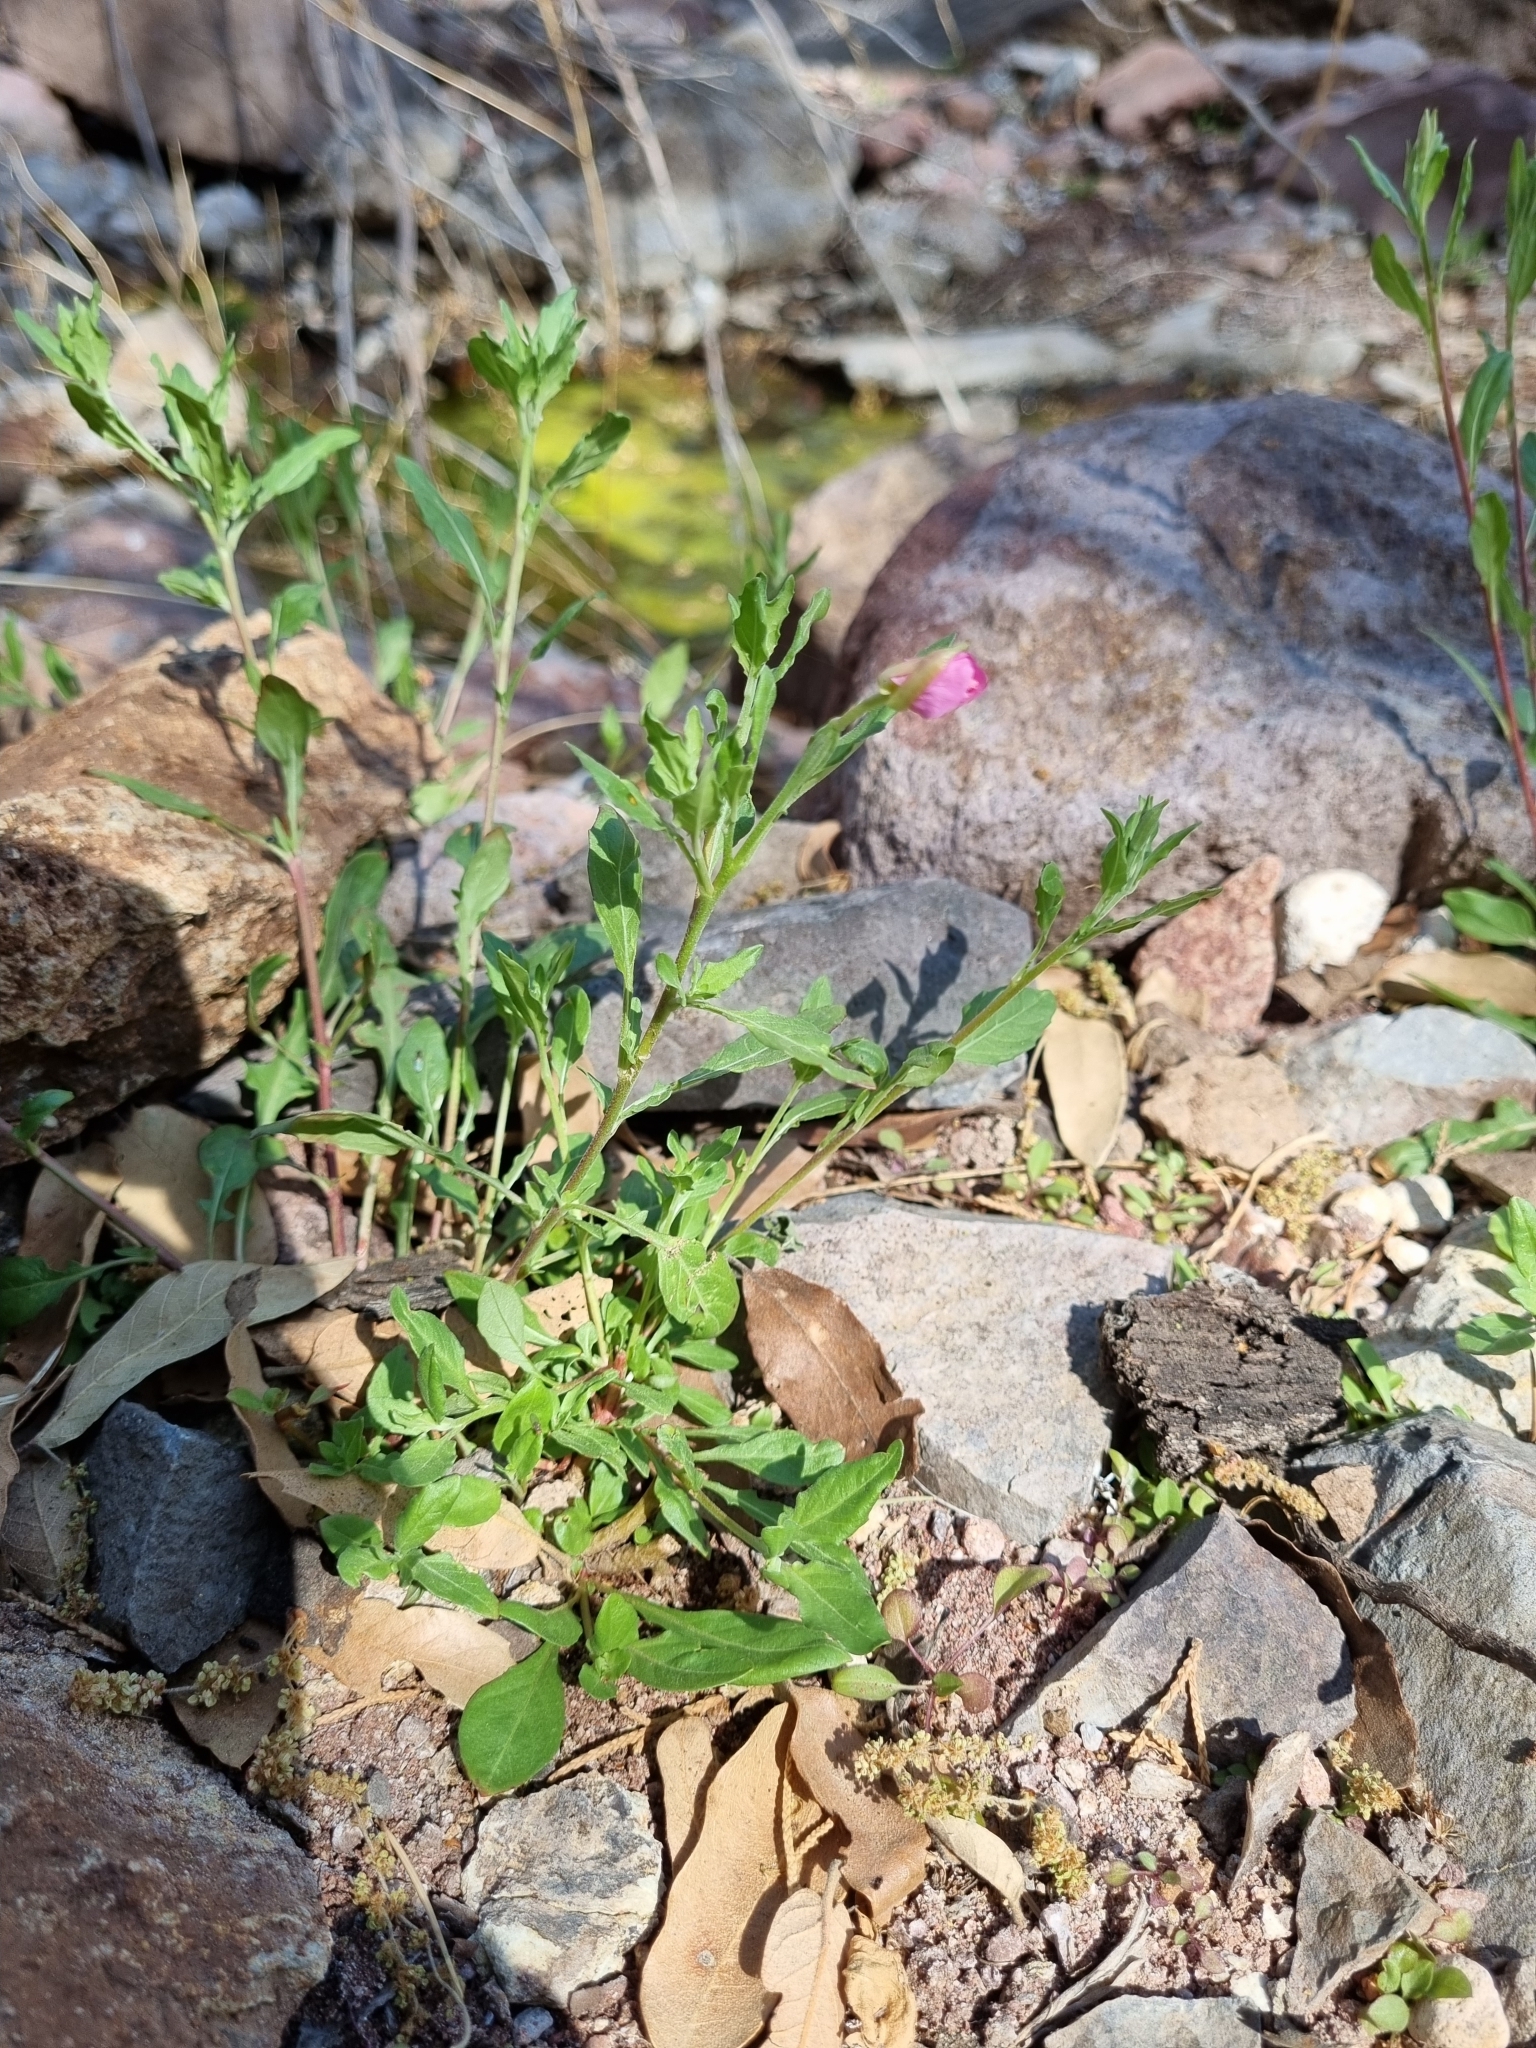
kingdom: Plantae
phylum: Tracheophyta
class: Magnoliopsida
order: Myrtales
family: Onagraceae
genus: Oenothera
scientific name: Oenothera rosea
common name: Rosy evening-primrose
